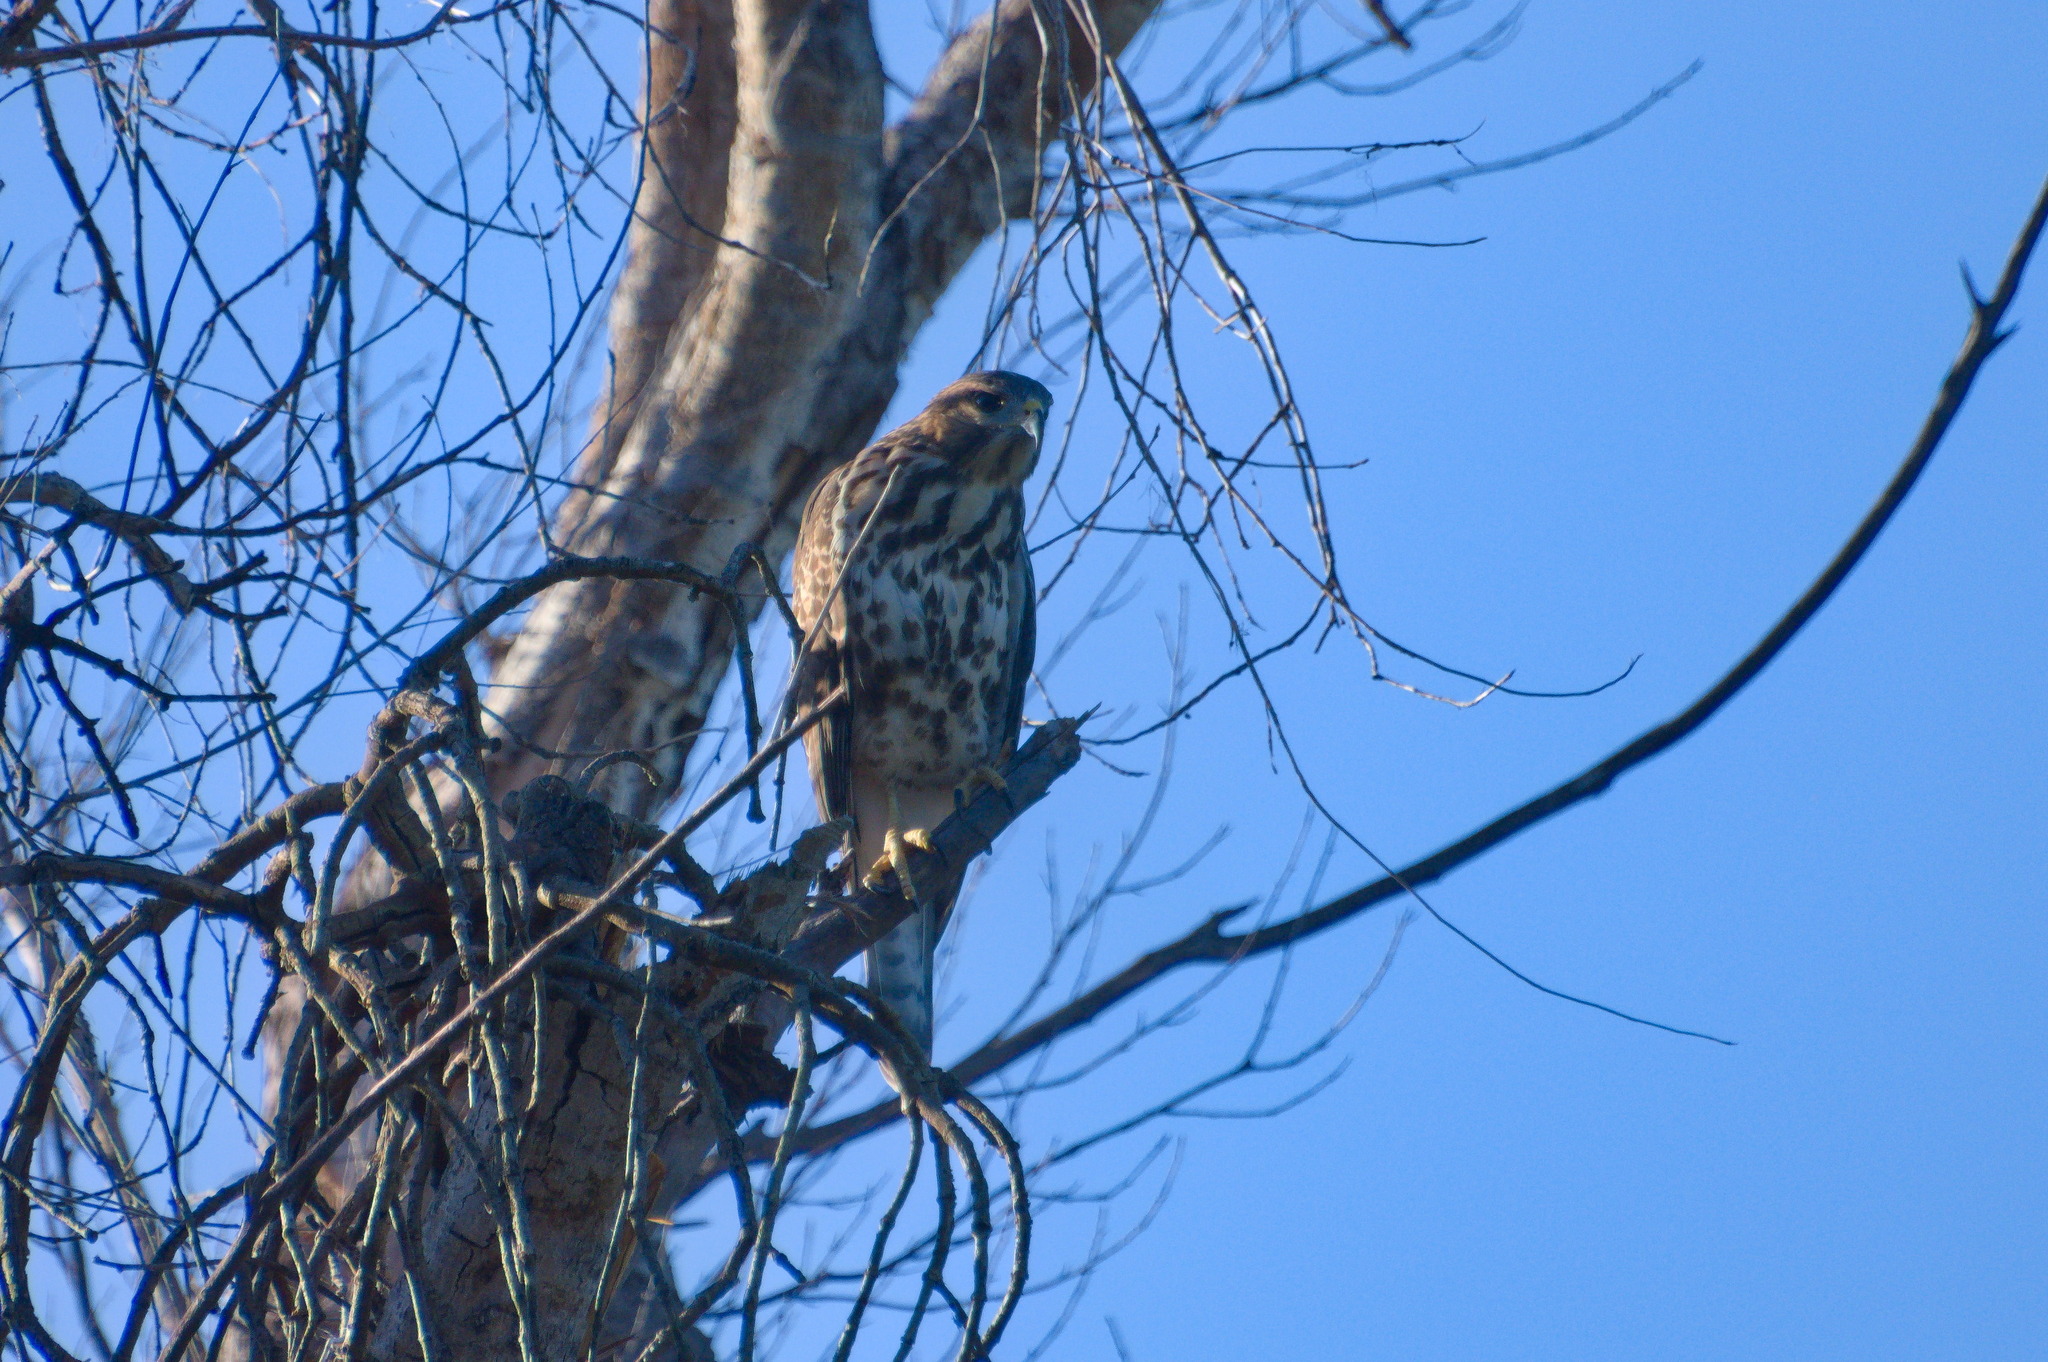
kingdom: Animalia
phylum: Chordata
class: Aves
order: Accipitriformes
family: Accipitridae
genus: Buteo
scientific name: Buteo nitidus
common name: Grey-lined hawk
